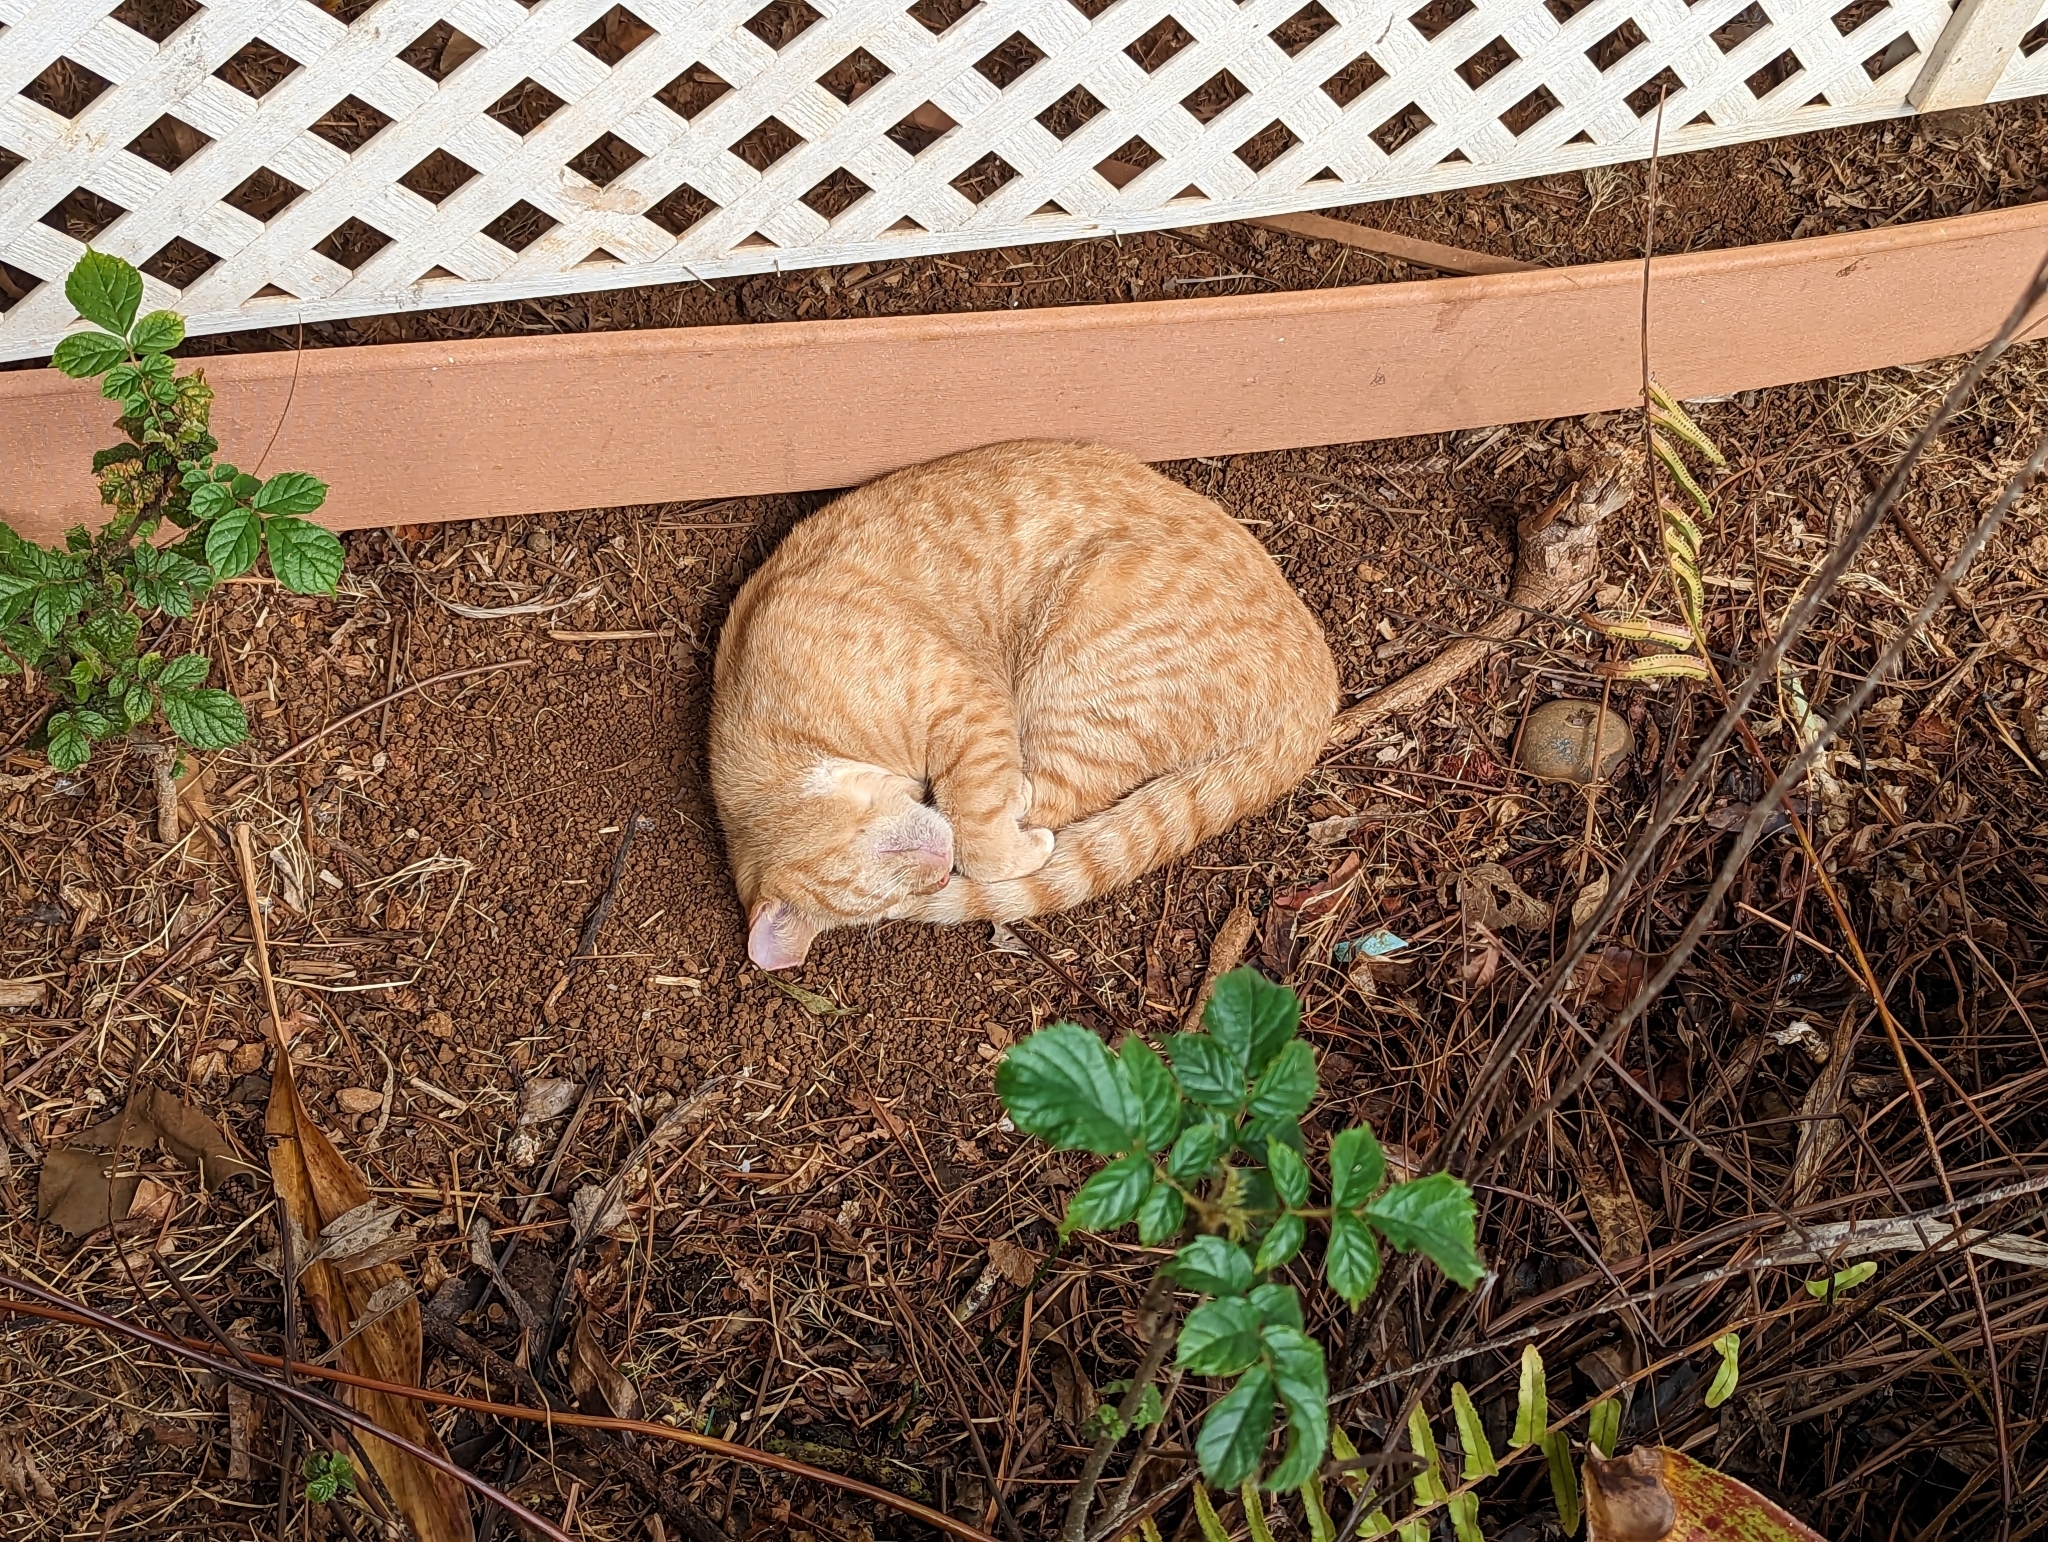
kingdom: Animalia
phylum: Chordata
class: Mammalia
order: Carnivora
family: Felidae
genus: Felis
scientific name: Felis catus
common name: Domestic cat
